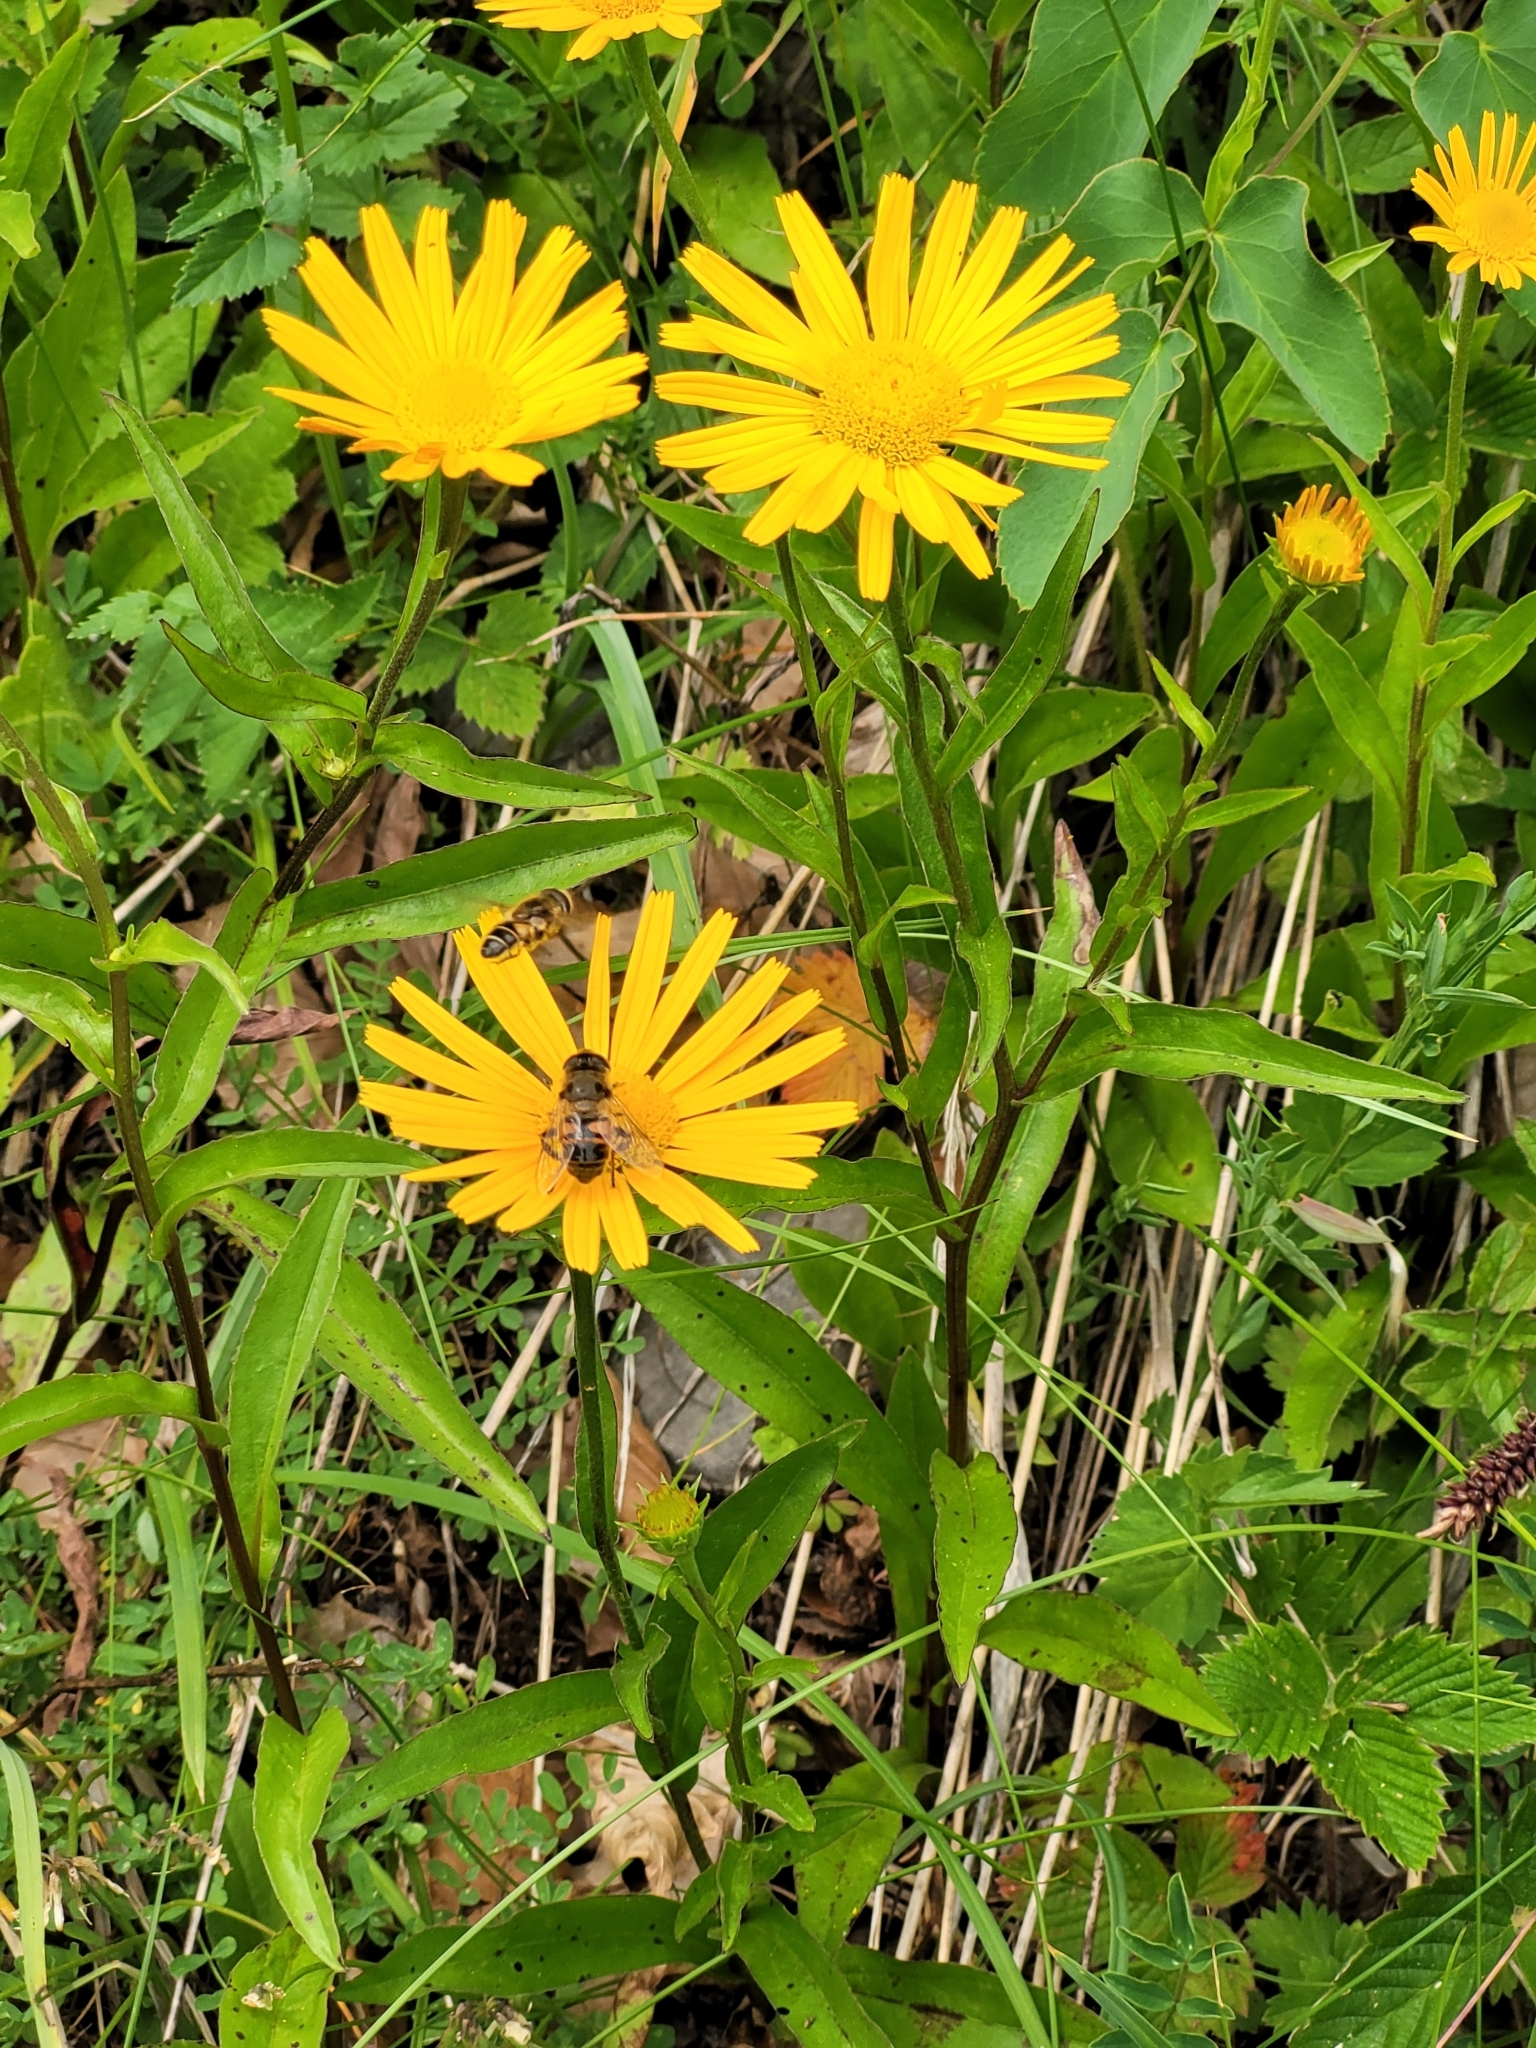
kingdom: Plantae
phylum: Tracheophyta
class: Magnoliopsida
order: Asterales
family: Asteraceae
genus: Buphthalmum
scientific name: Buphthalmum salicifolium
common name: Willow-leaved yellow-oxeye
